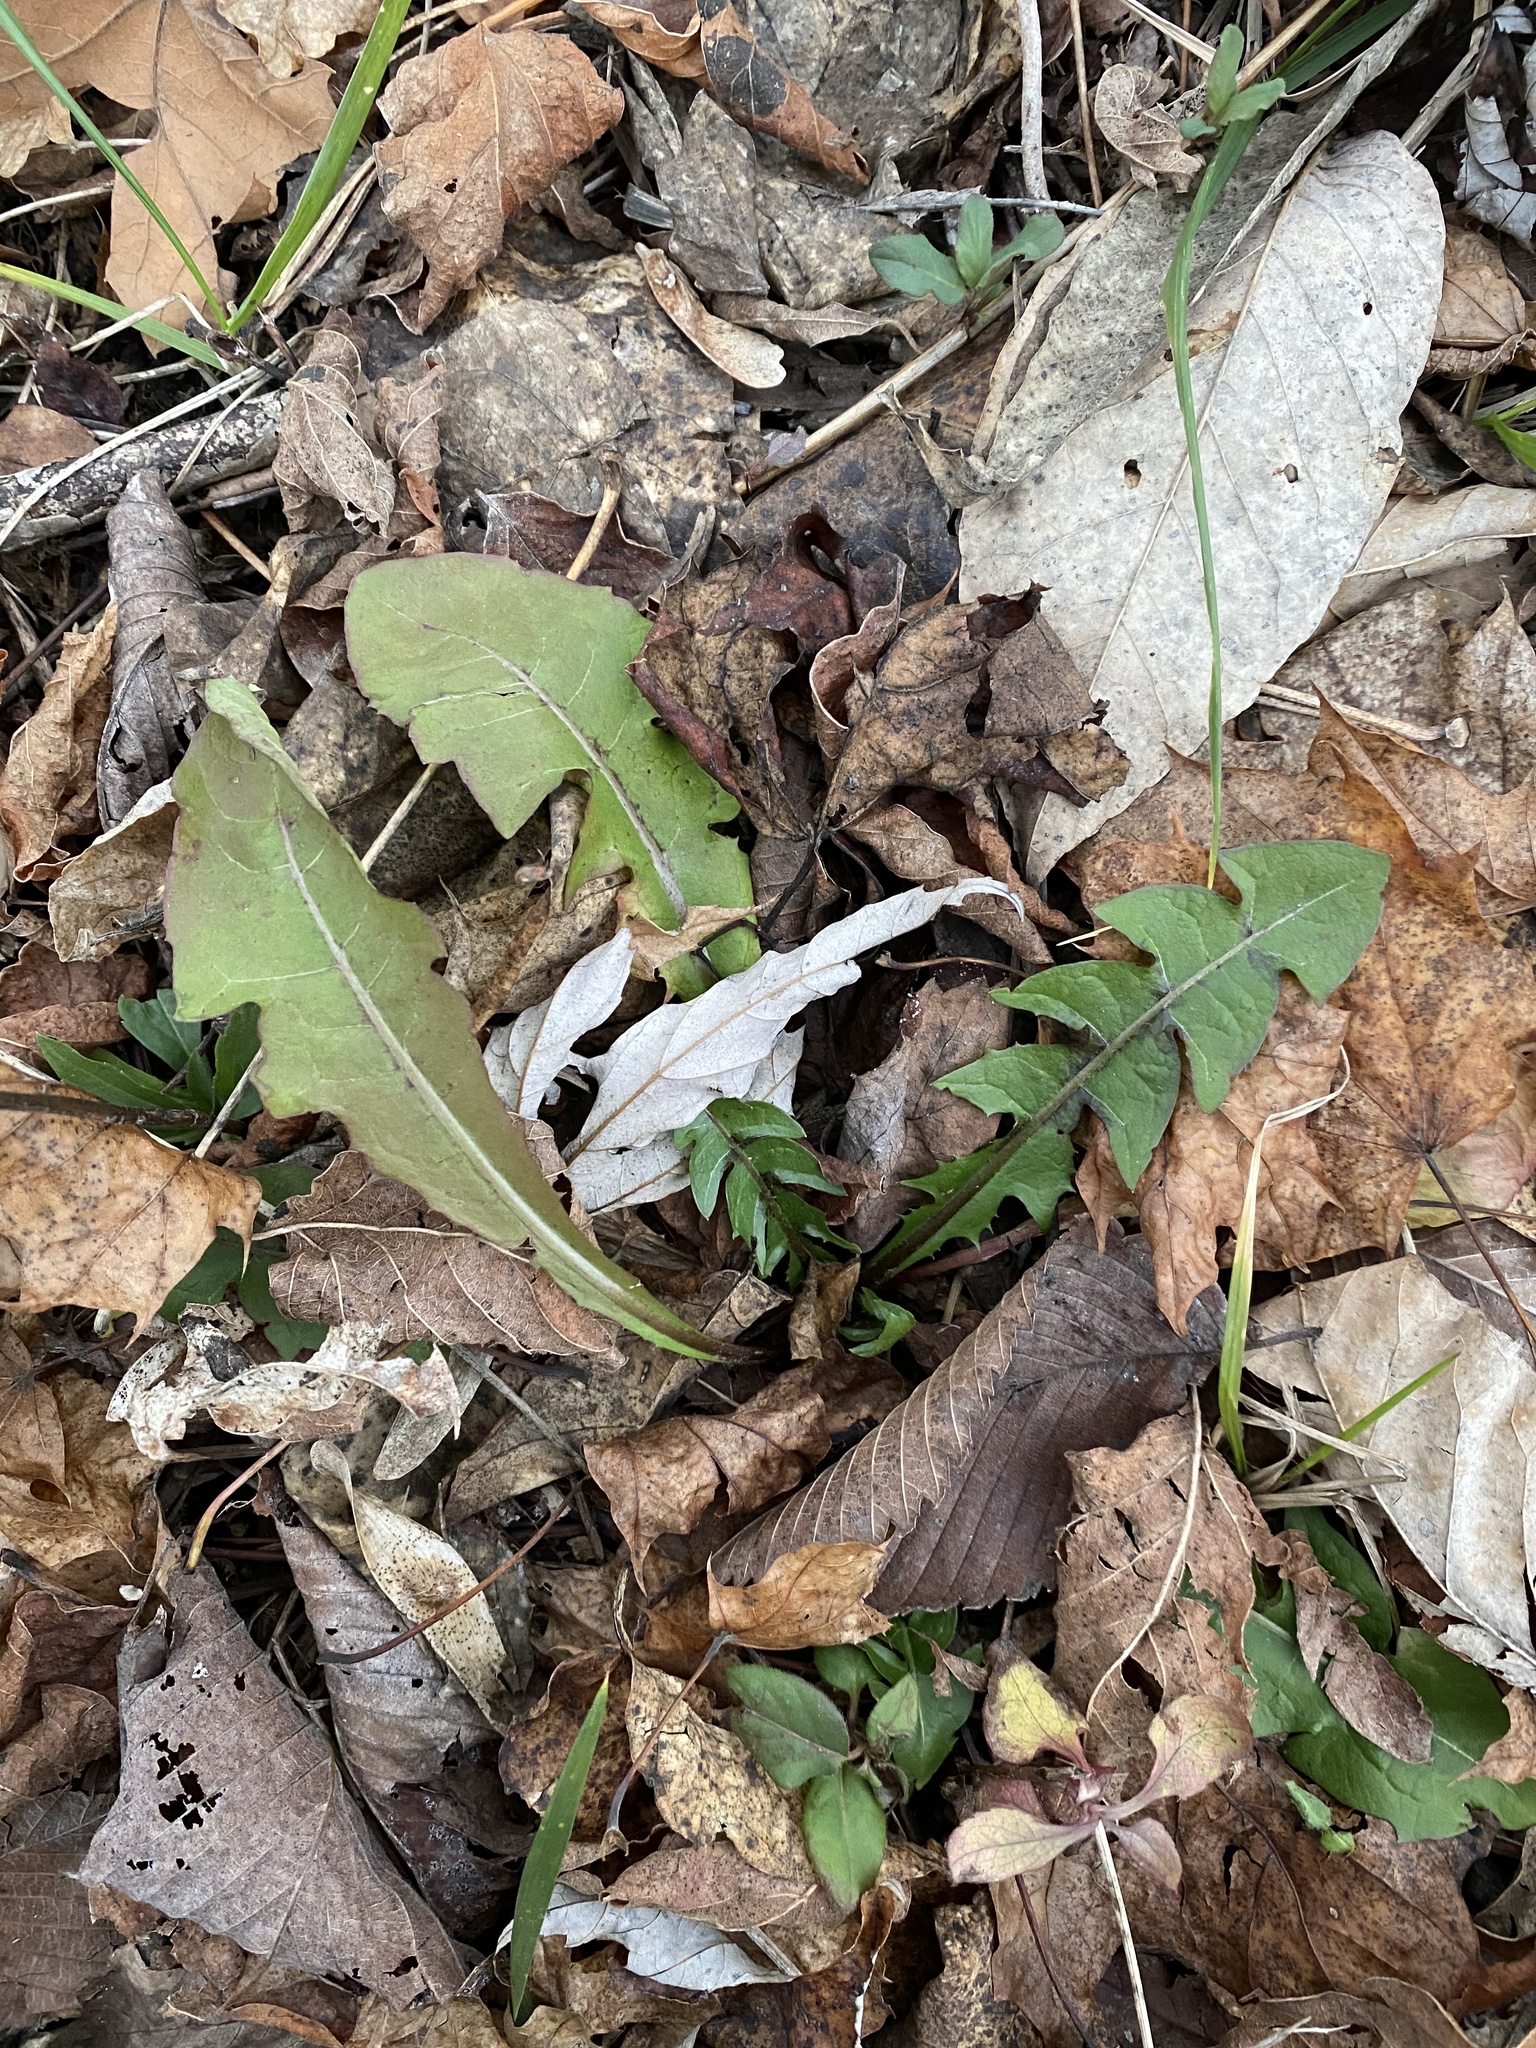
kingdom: Plantae
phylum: Tracheophyta
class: Magnoliopsida
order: Asterales
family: Asteraceae
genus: Taraxacum
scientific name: Taraxacum officinale
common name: Common dandelion
